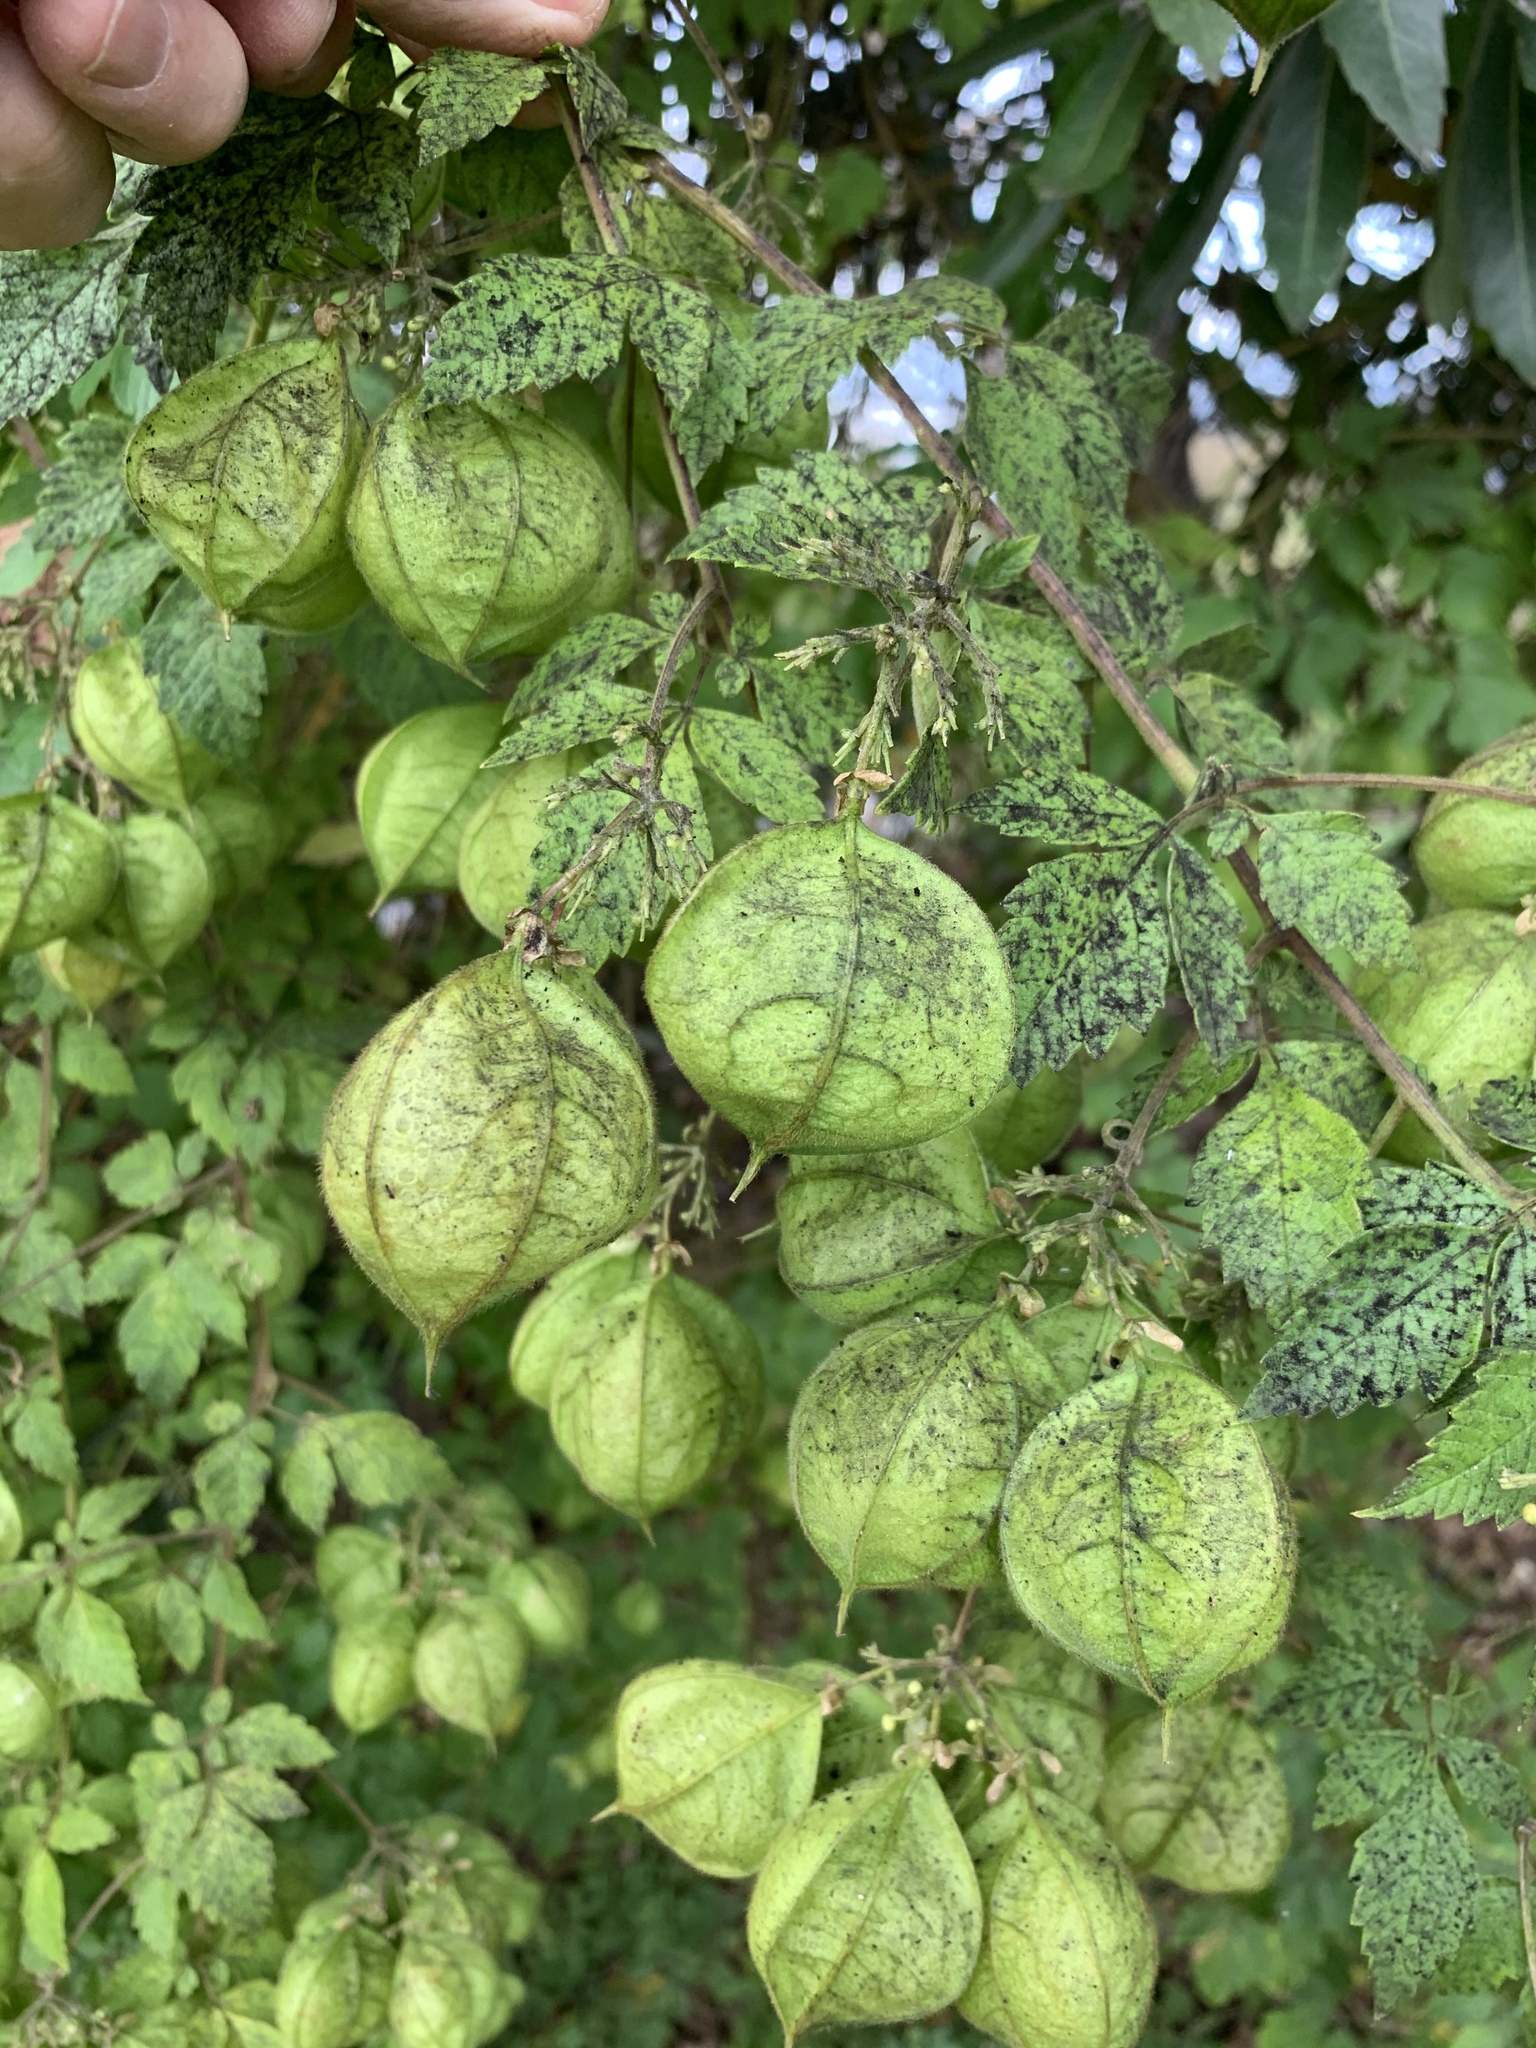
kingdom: Plantae
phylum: Tracheophyta
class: Magnoliopsida
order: Sapindales
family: Sapindaceae
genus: Cardiospermum
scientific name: Cardiospermum grandiflorum
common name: Balloon vine
